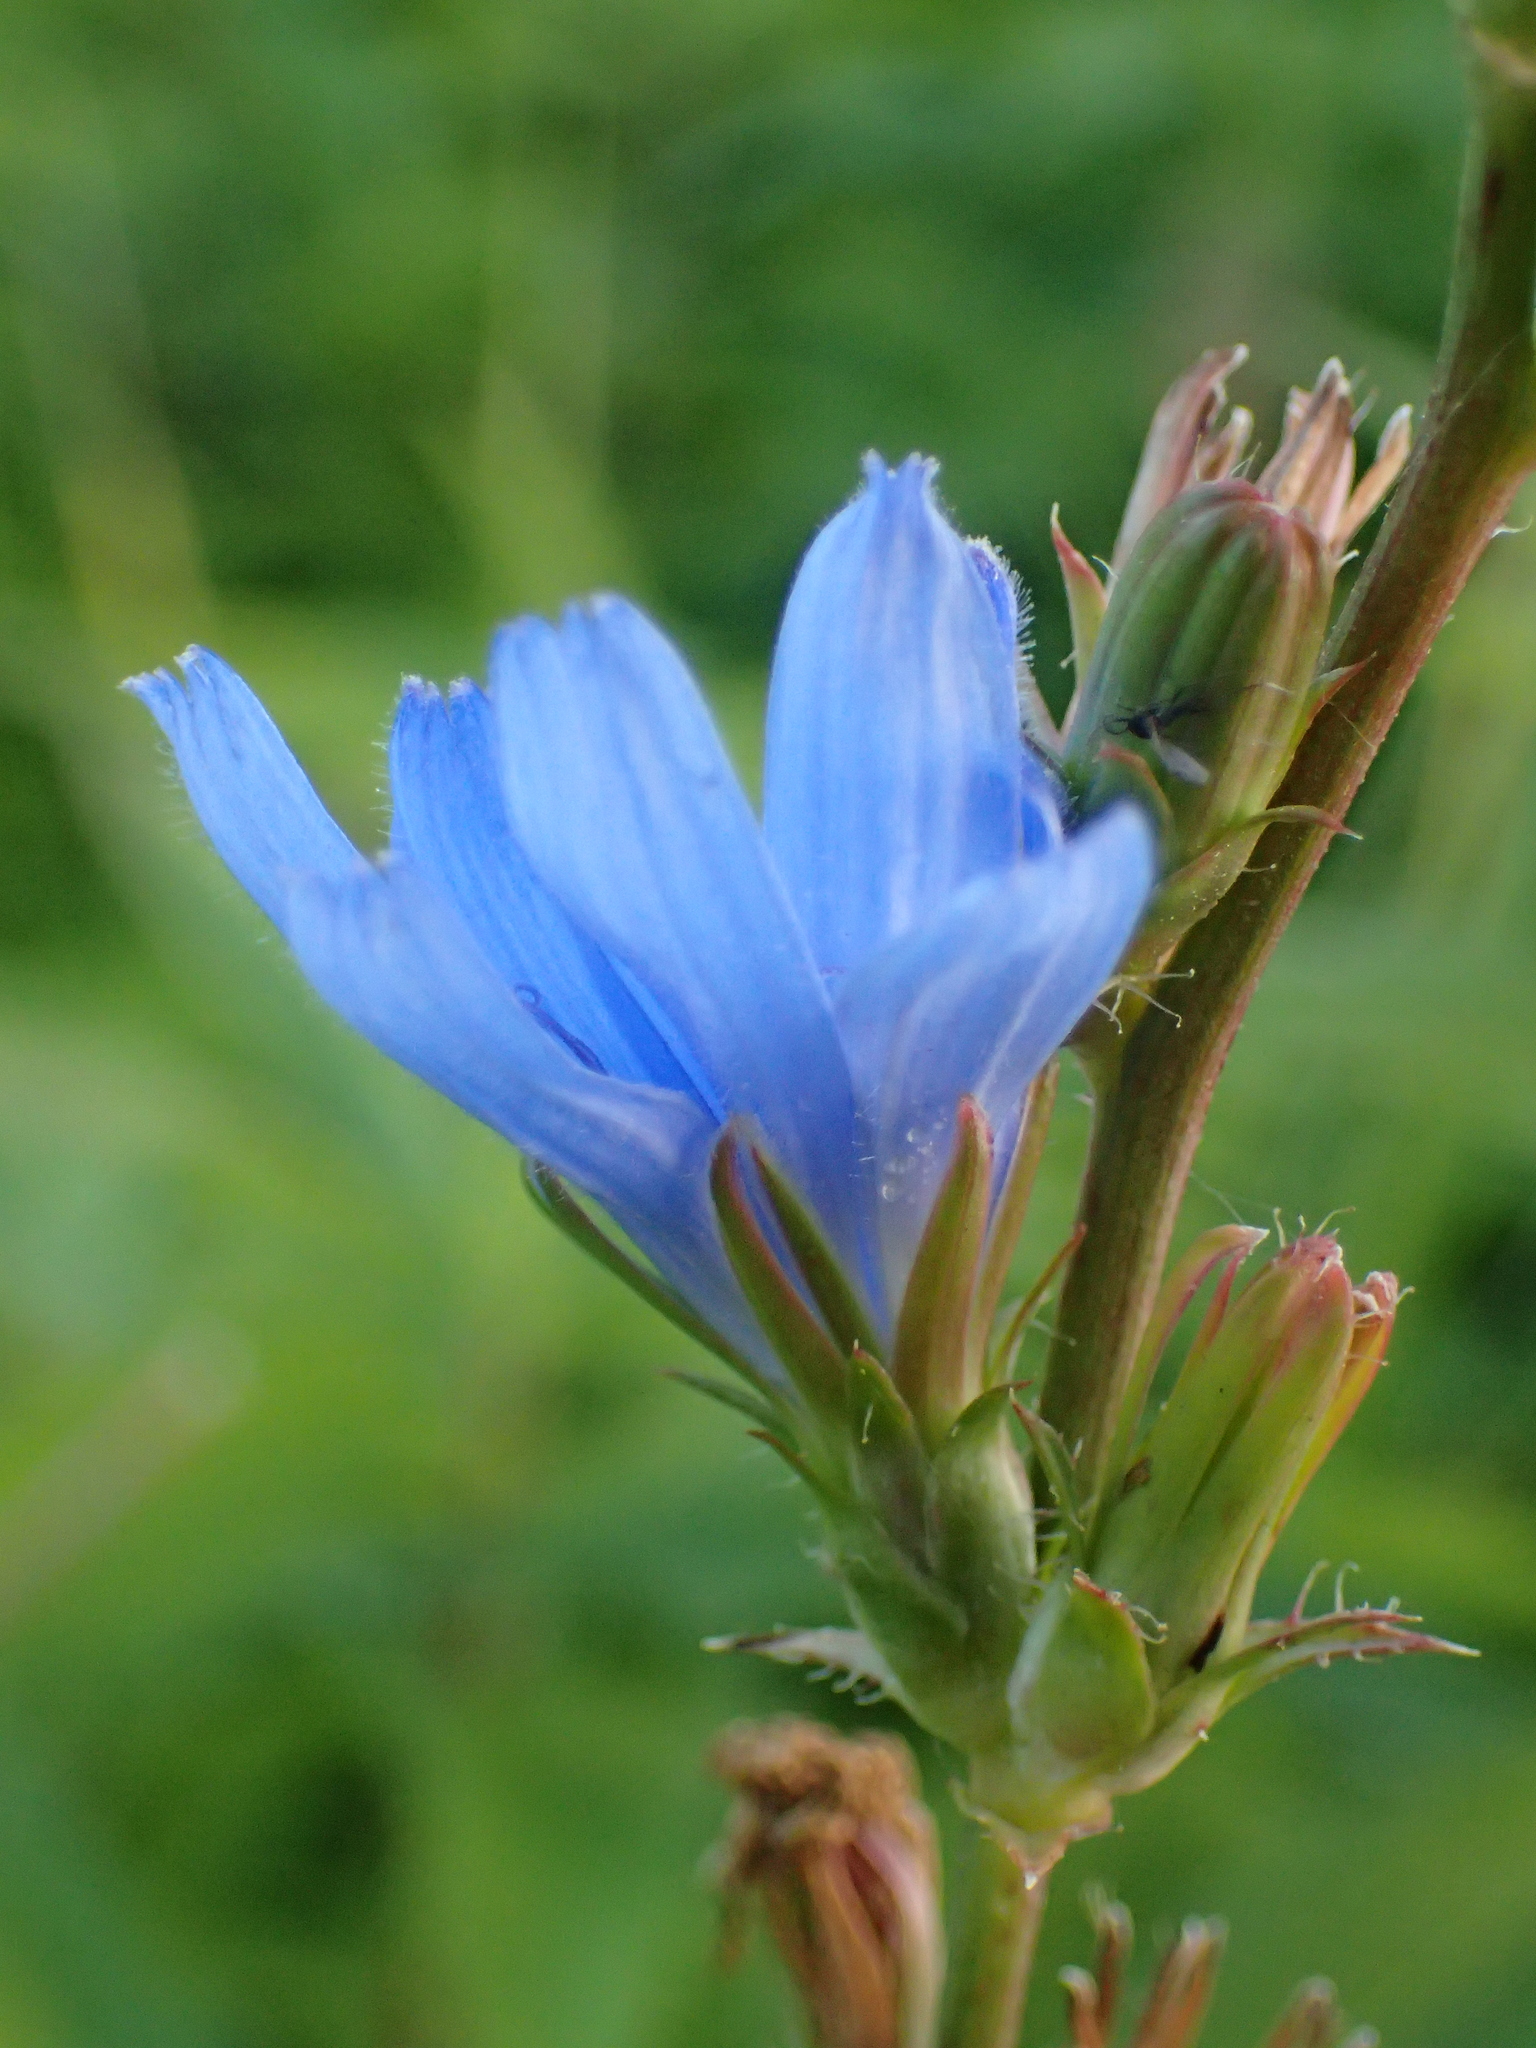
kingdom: Plantae
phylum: Tracheophyta
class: Magnoliopsida
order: Asterales
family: Asteraceae
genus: Cichorium
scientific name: Cichorium intybus
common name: Chicory
